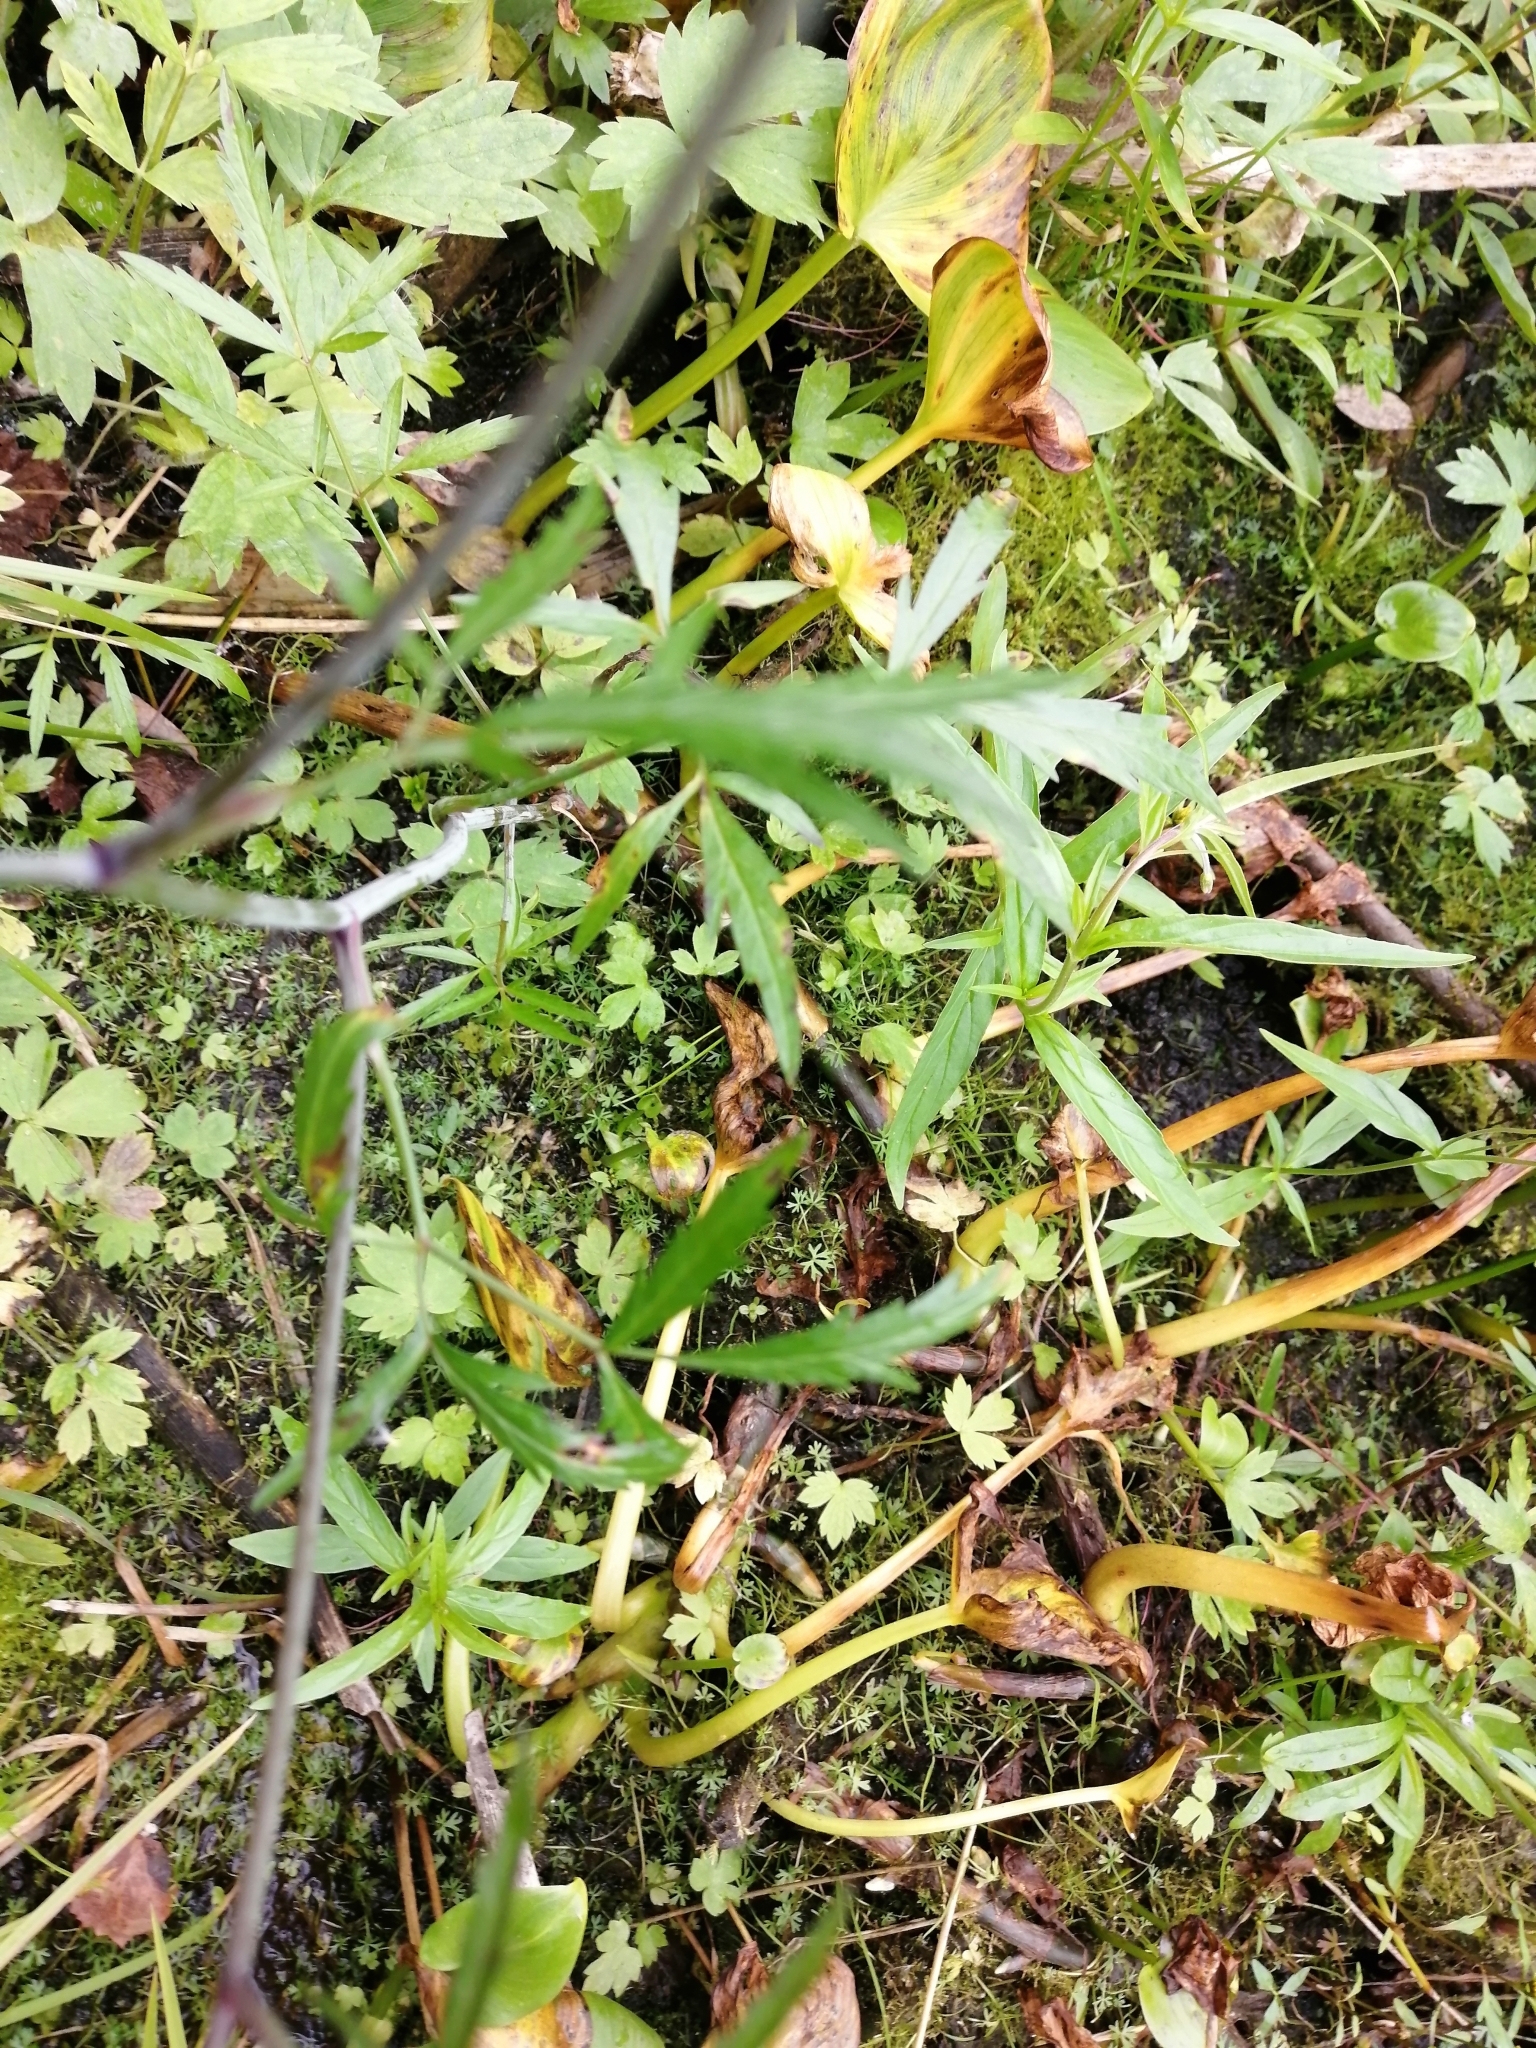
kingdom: Plantae
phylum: Tracheophyta
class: Magnoliopsida
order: Apiales
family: Apiaceae
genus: Cicuta
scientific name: Cicuta virosa
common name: Cowbane
